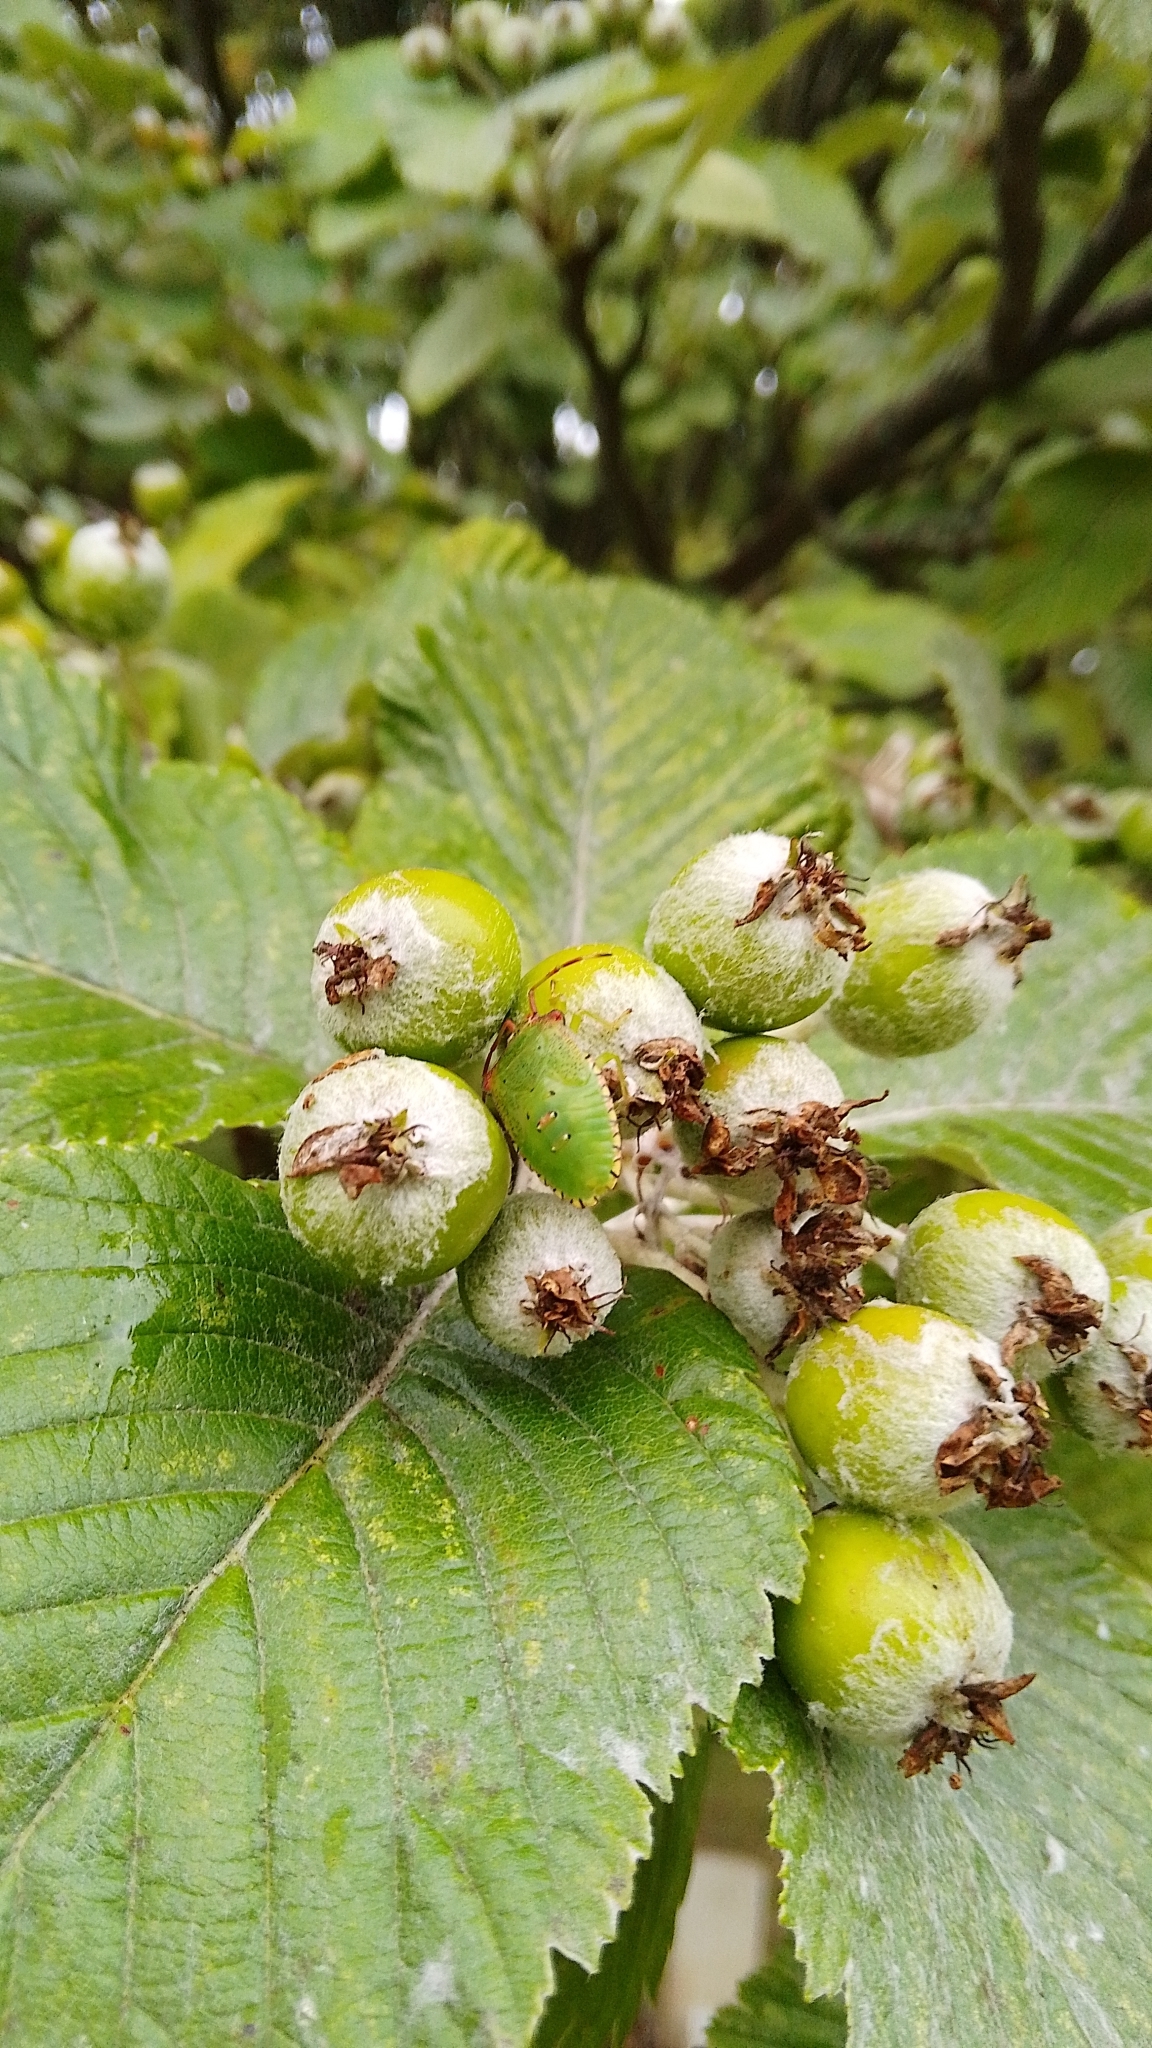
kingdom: Animalia
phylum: Arthropoda
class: Insecta
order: Hemiptera
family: Acanthosomatidae
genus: Acanthosoma
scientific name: Acanthosoma haemorrhoidale
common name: Hawthorn shieldbug
